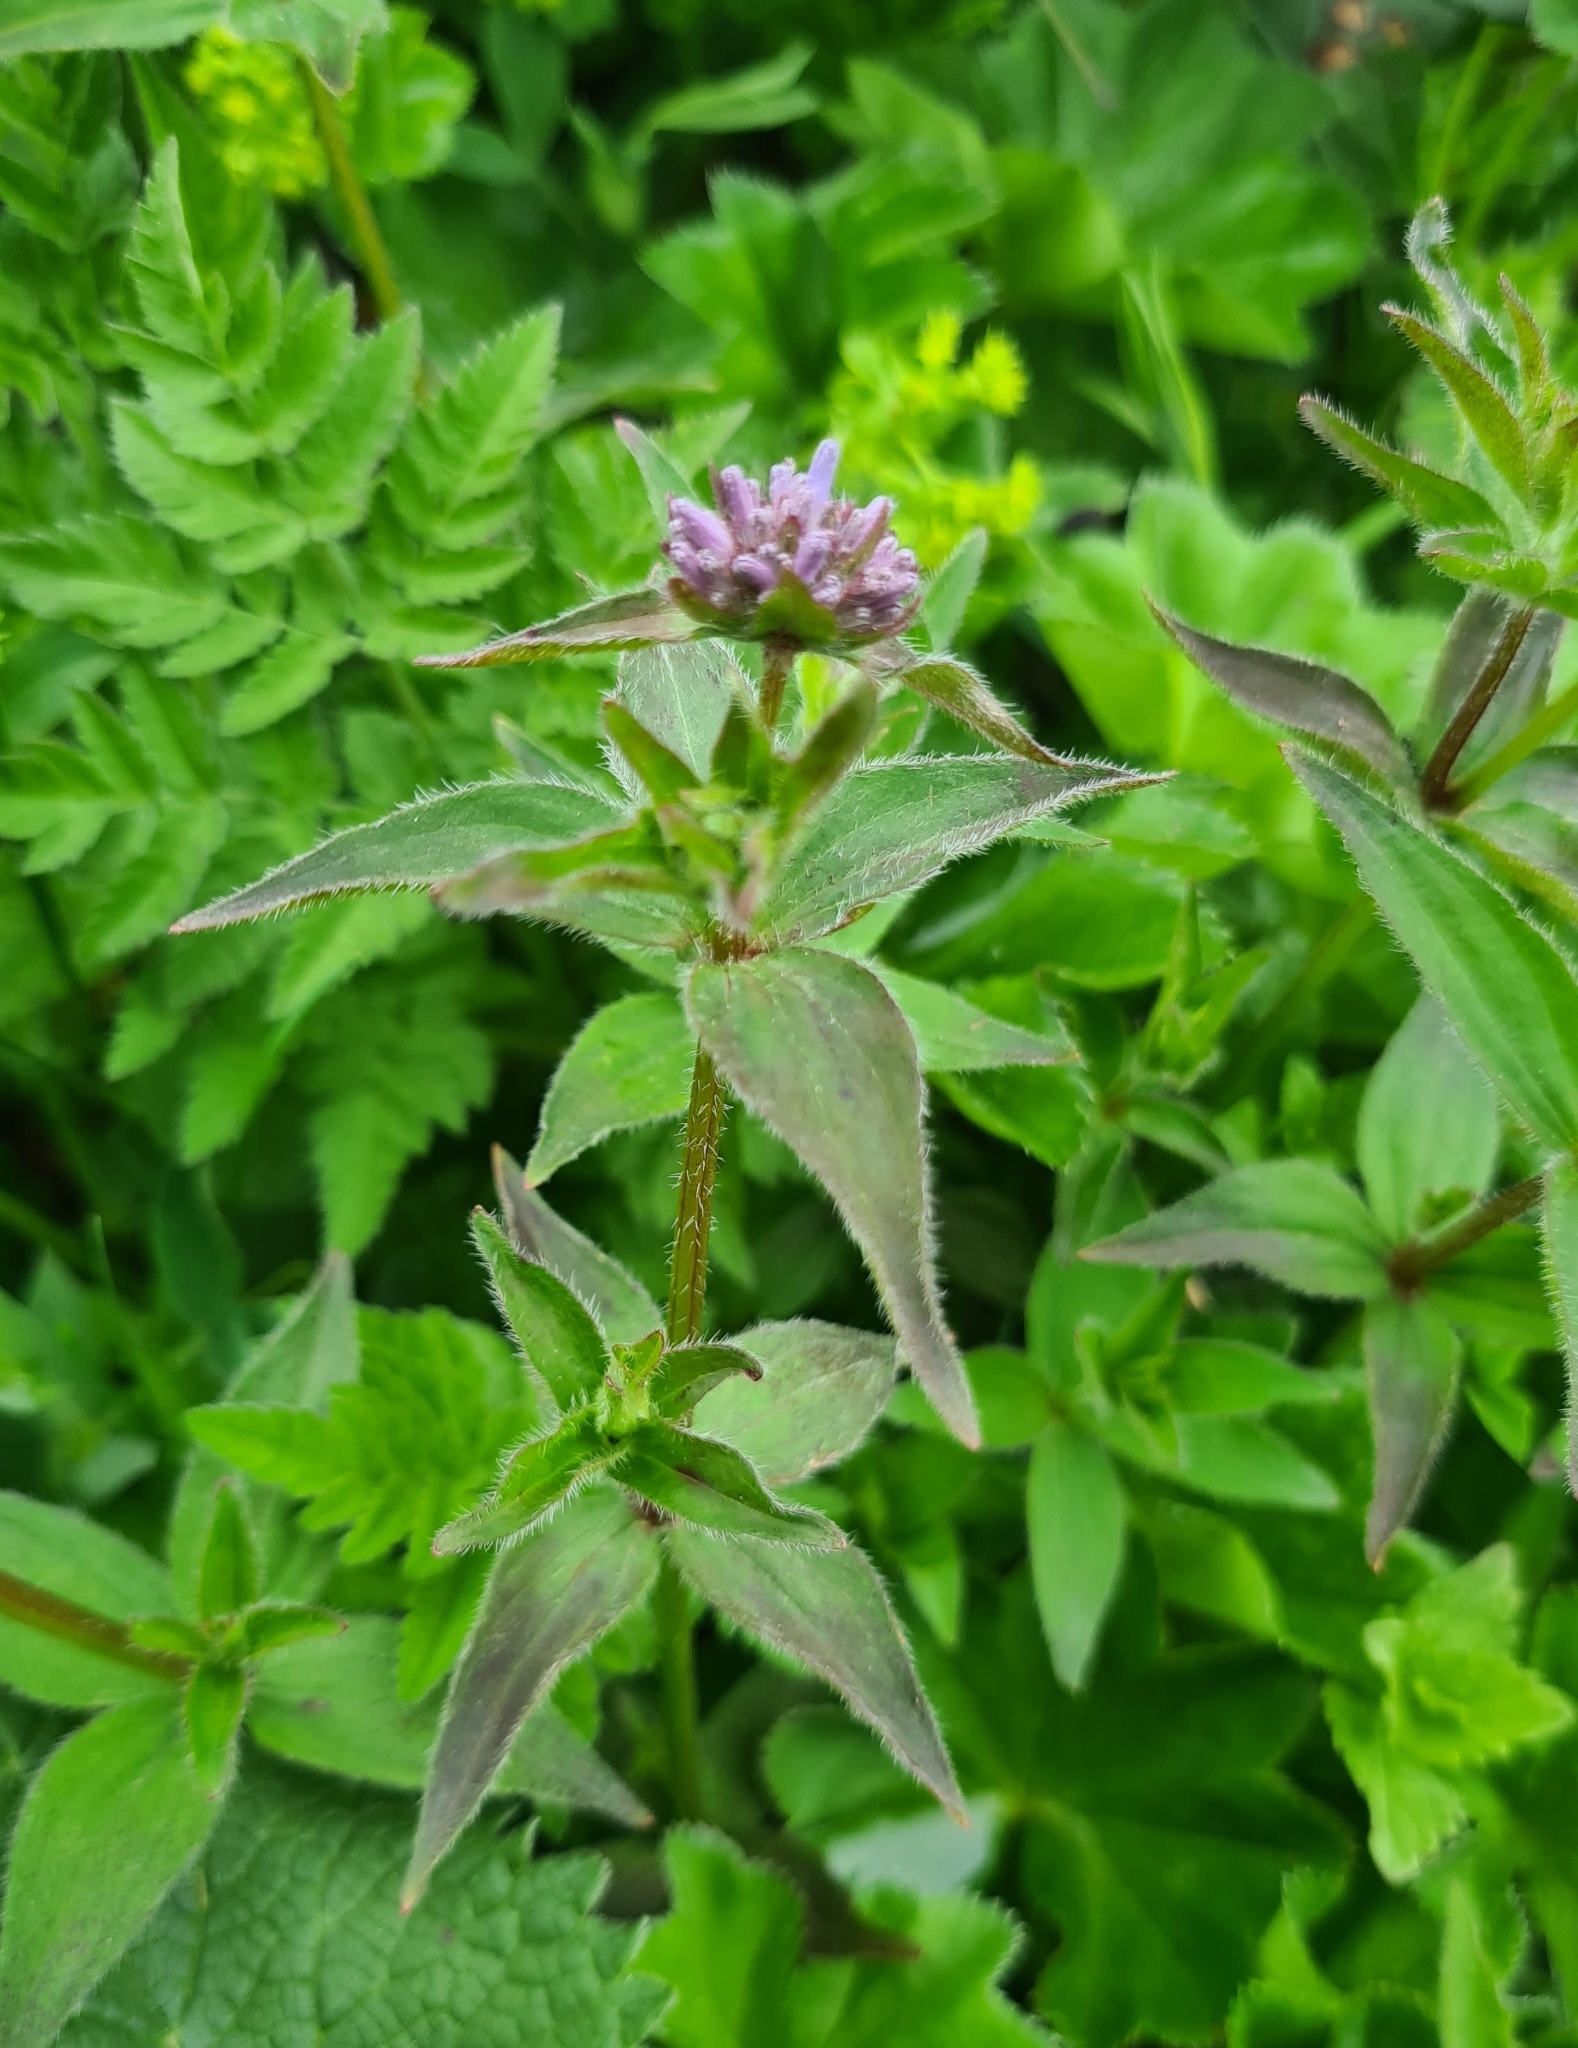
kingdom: Plantae
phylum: Tracheophyta
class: Magnoliopsida
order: Gentianales
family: Rubiaceae
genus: Asperula
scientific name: Asperula taurina
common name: Pink woodruff
